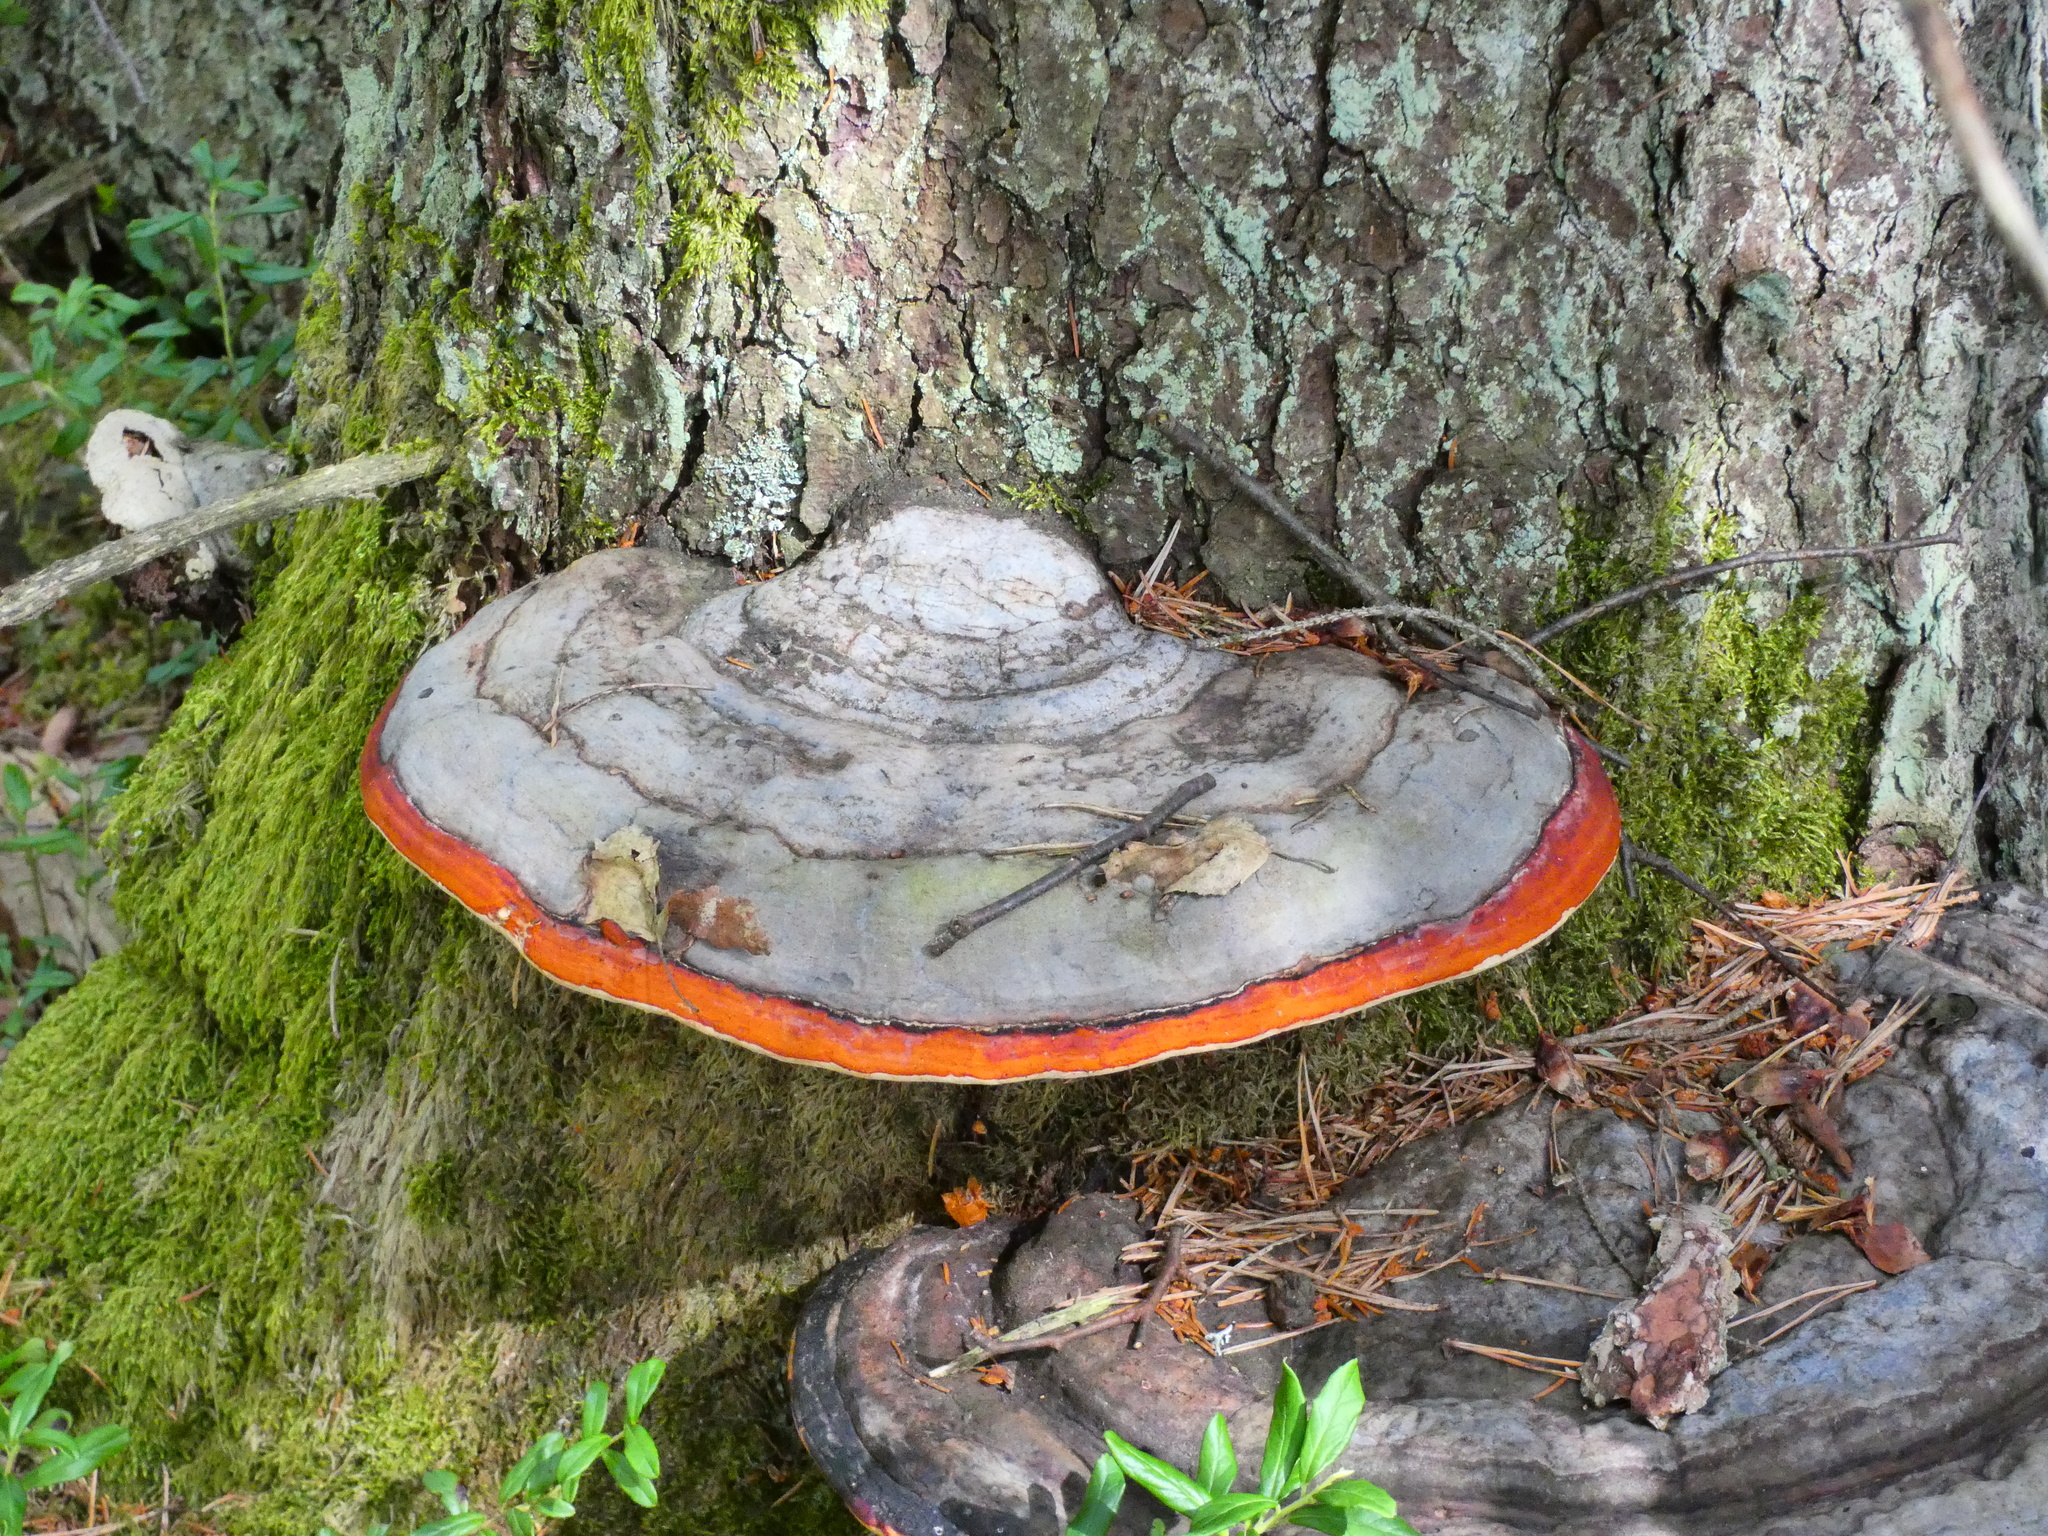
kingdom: Fungi
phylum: Basidiomycota
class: Agaricomycetes
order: Polyporales
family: Fomitopsidaceae
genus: Fomitopsis
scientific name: Fomitopsis pinicola
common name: Red-belted bracket
